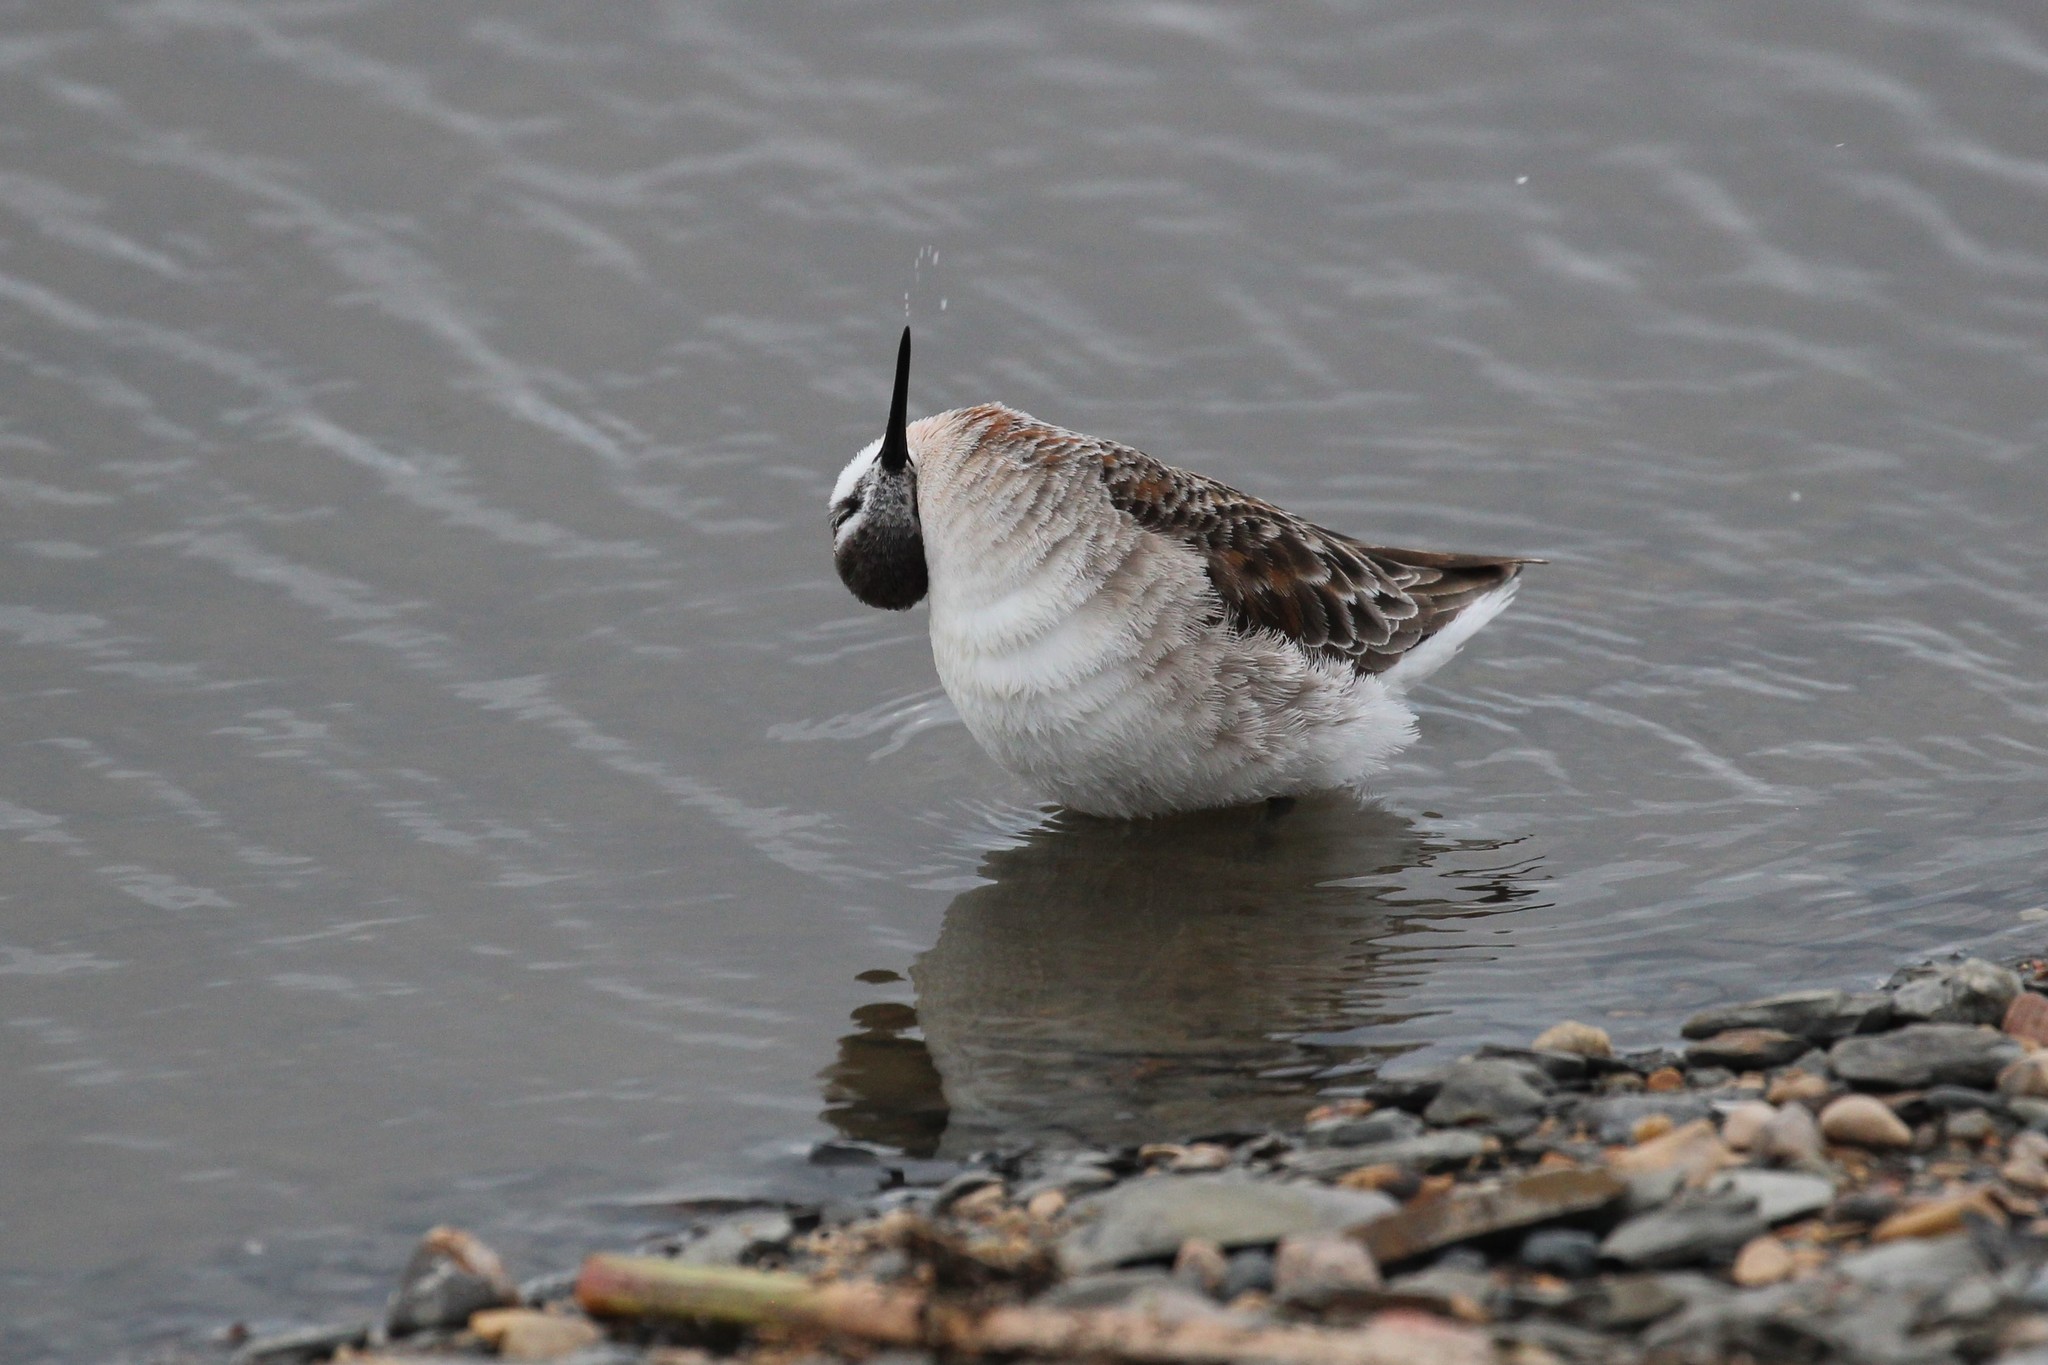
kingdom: Animalia
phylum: Chordata
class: Aves
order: Charadriiformes
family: Scolopacidae
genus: Phalaropus
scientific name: Phalaropus tricolor
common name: Wilson's phalarope
